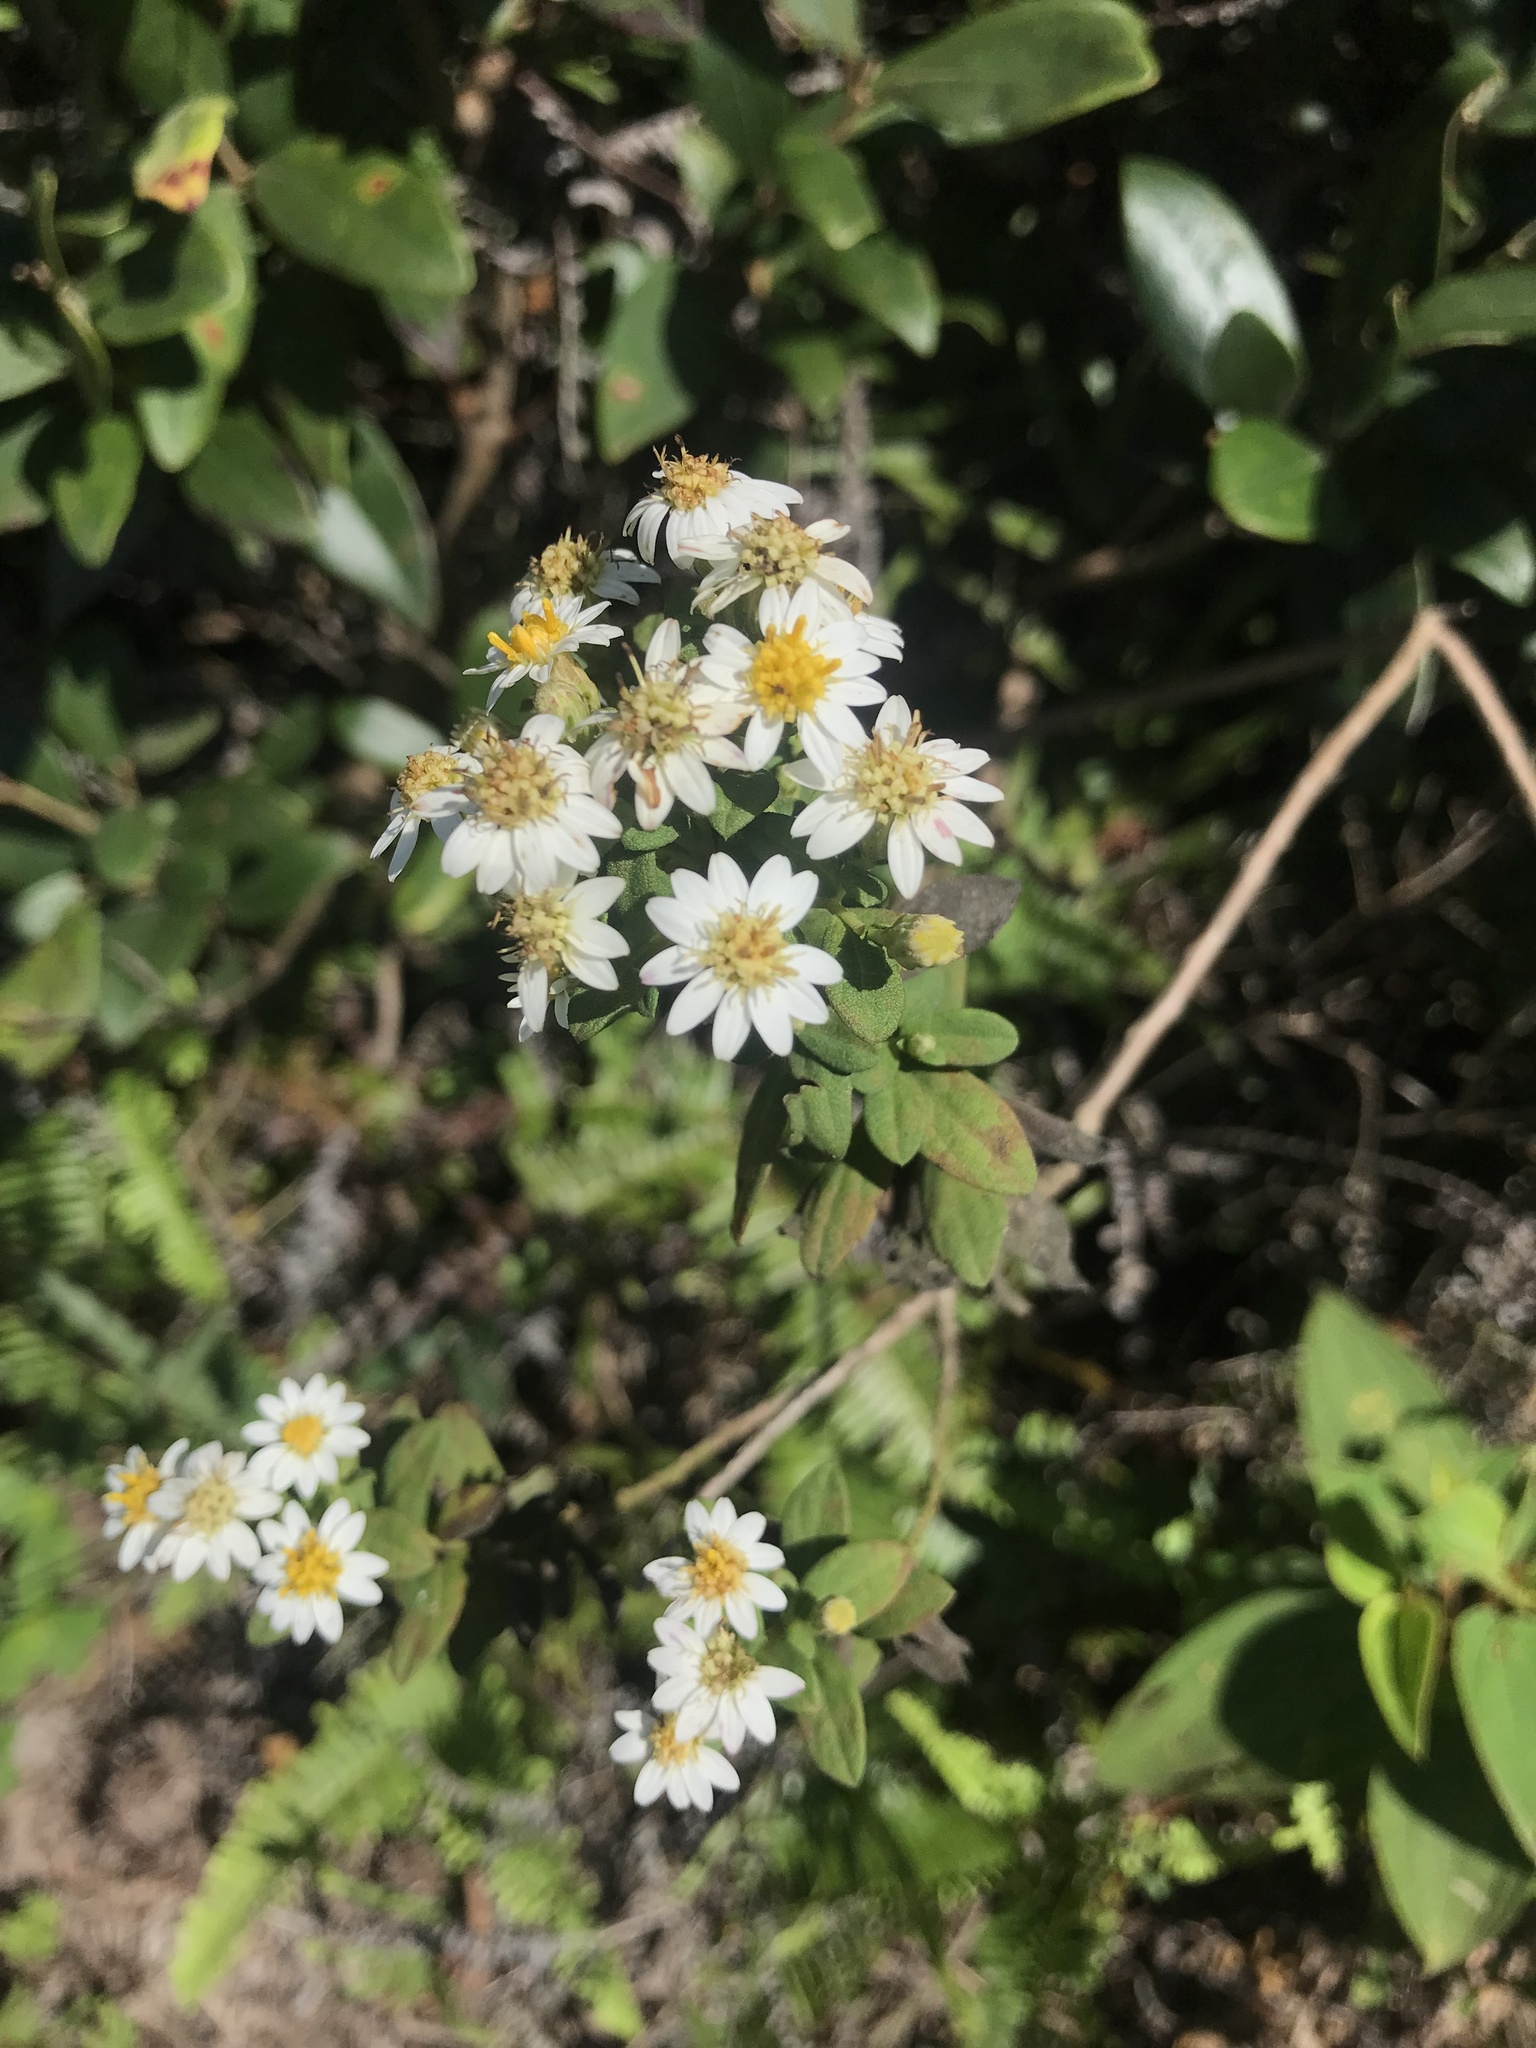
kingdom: Plantae
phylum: Tracheophyta
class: Magnoliopsida
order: Asterales
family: Asteraceae
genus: Aster
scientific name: Aster baccharoides
